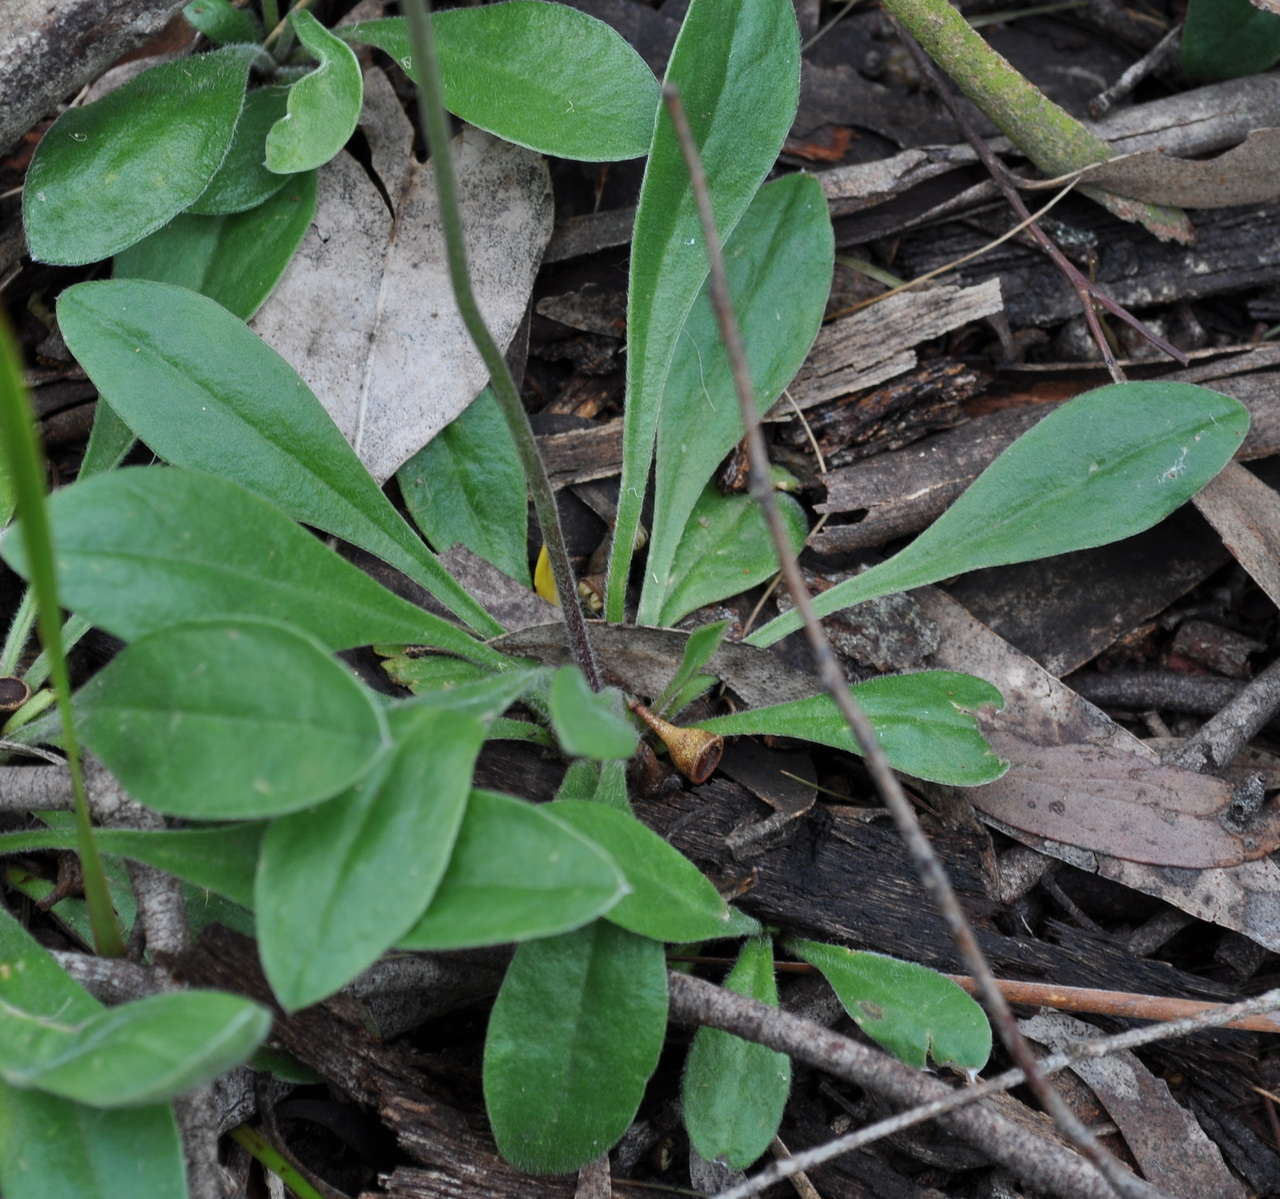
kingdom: Plantae
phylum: Tracheophyta
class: Magnoliopsida
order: Asterales
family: Goodeniaceae
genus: Brunonia
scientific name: Brunonia australis
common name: Blue pincushion
